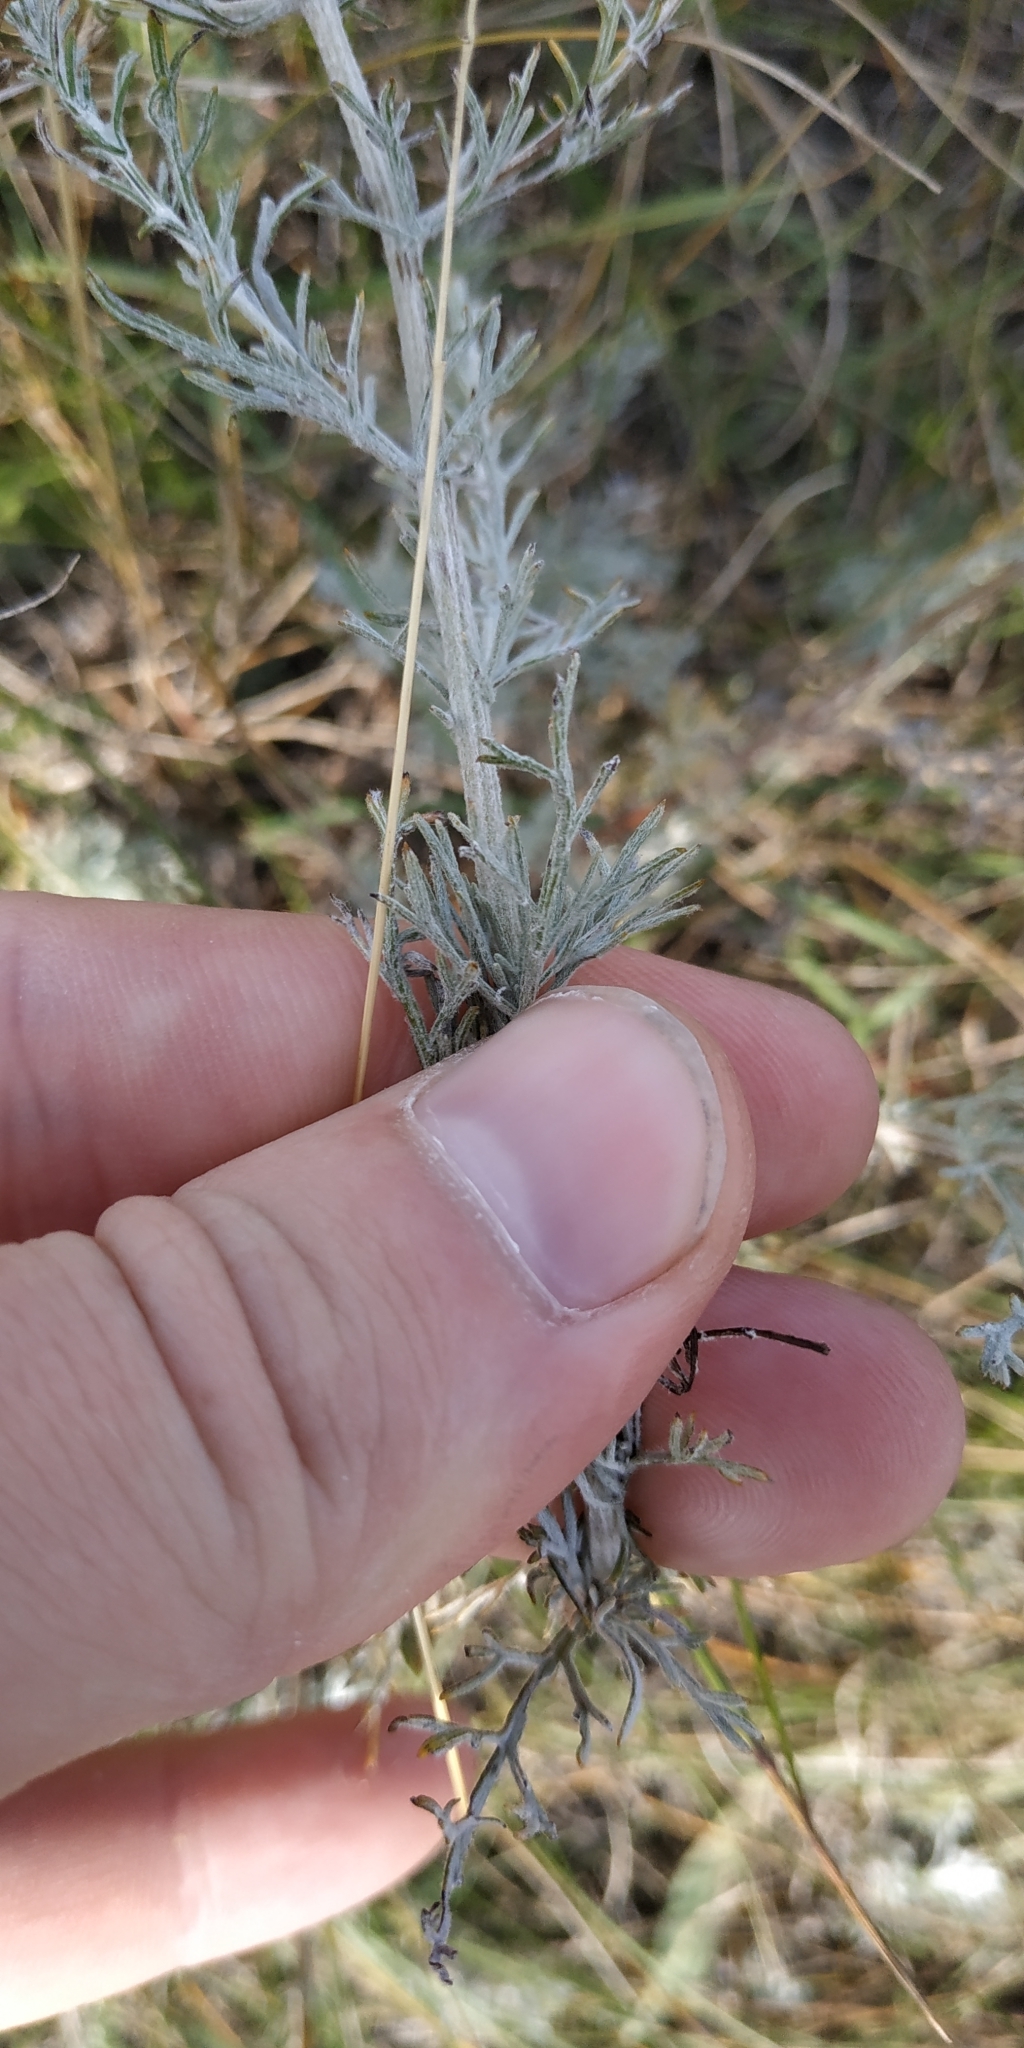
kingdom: Plantae
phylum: Tracheophyta
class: Magnoliopsida
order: Asterales
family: Asteraceae
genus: Artemisia
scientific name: Artemisia nitrosa
